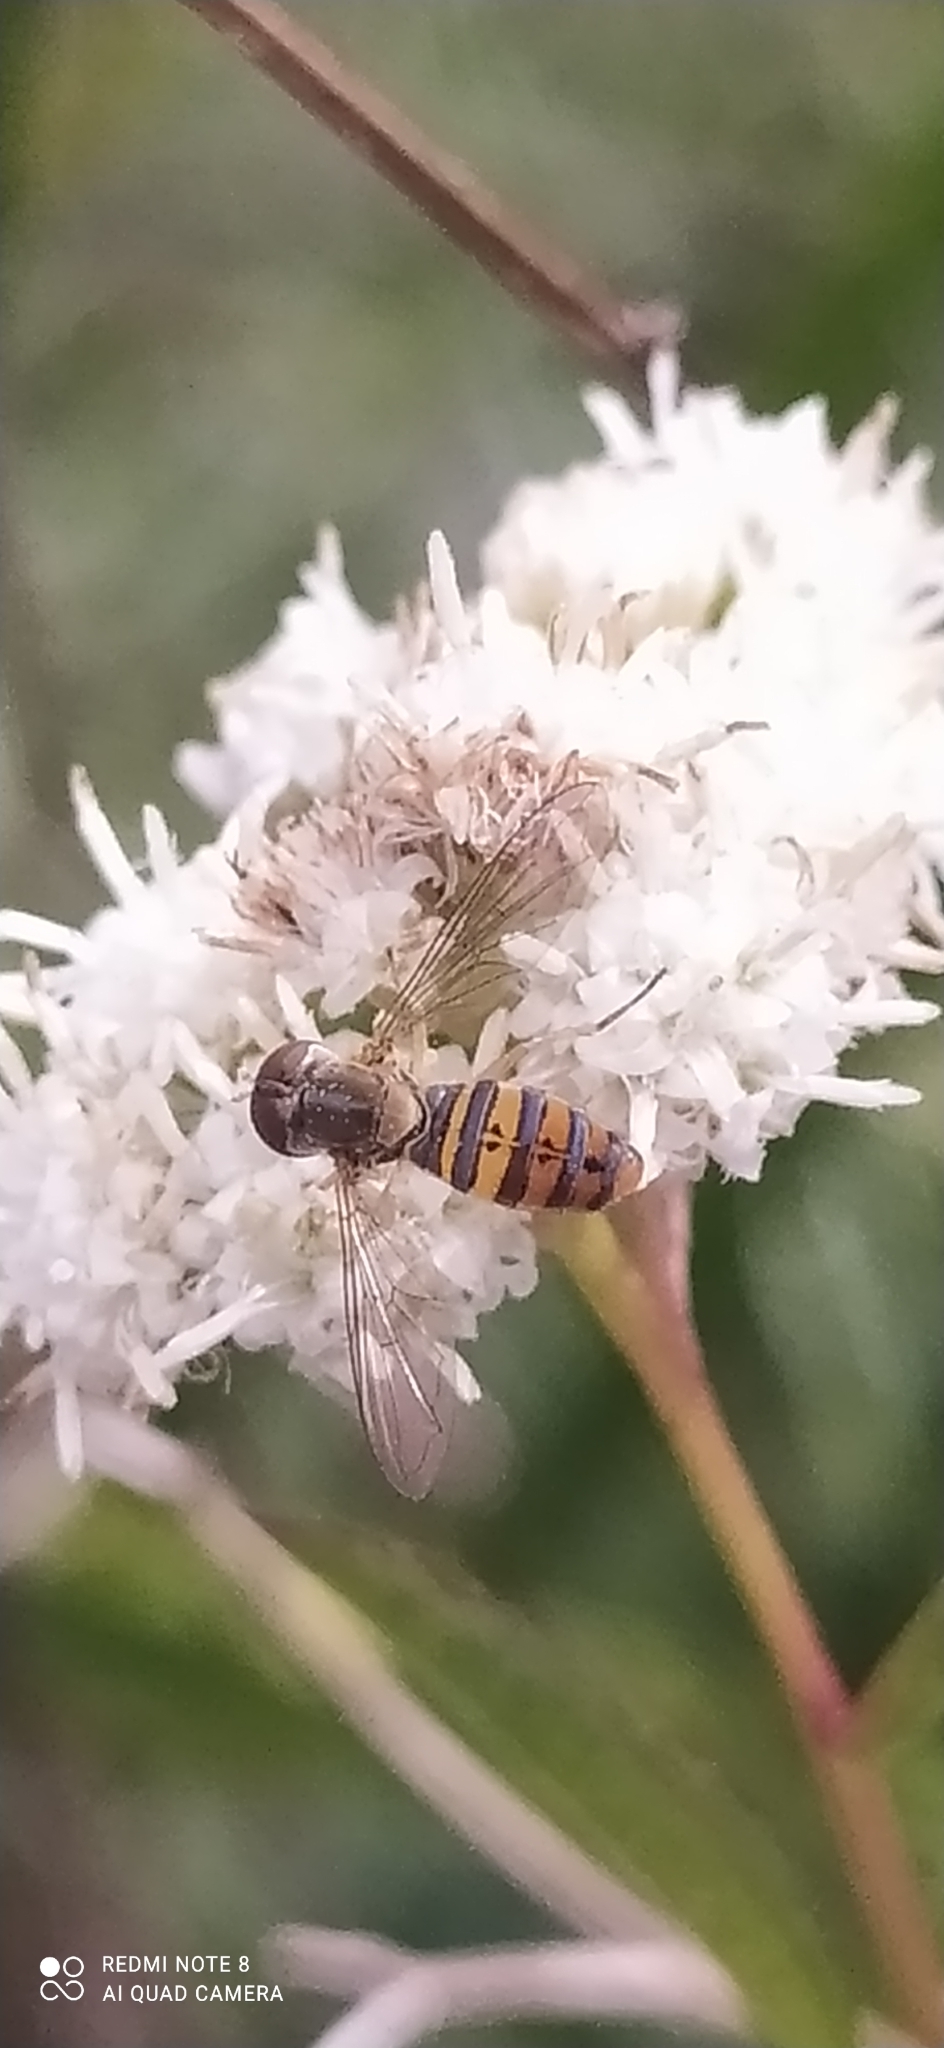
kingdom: Animalia
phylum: Arthropoda
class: Insecta
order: Diptera
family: Syrphidae
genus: Toxomerus
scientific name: Toxomerus
